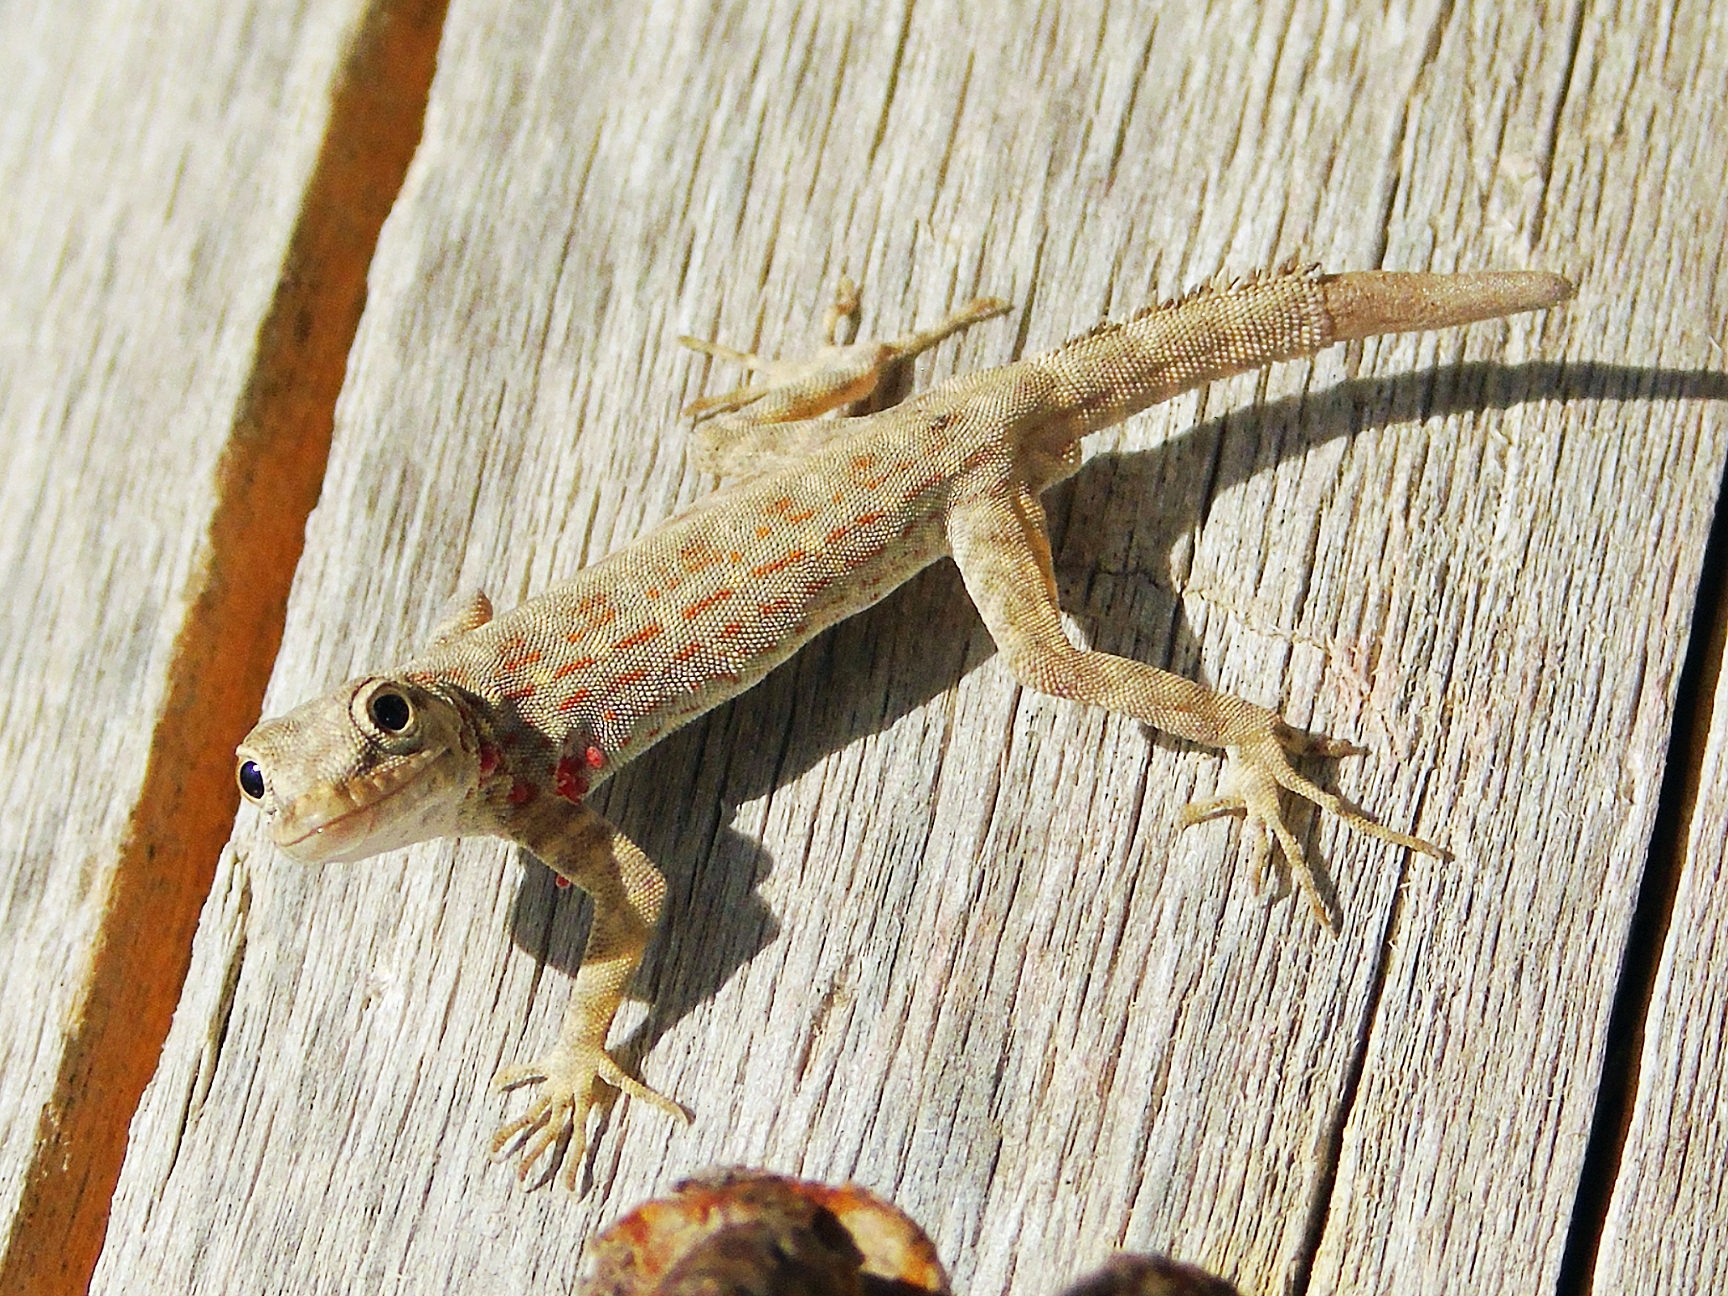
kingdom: Animalia
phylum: Chordata
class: Squamata
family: Sphaerodactylidae
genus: Pristurus
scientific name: Pristurus rupestris
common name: Blanford’s semaphore gecko
